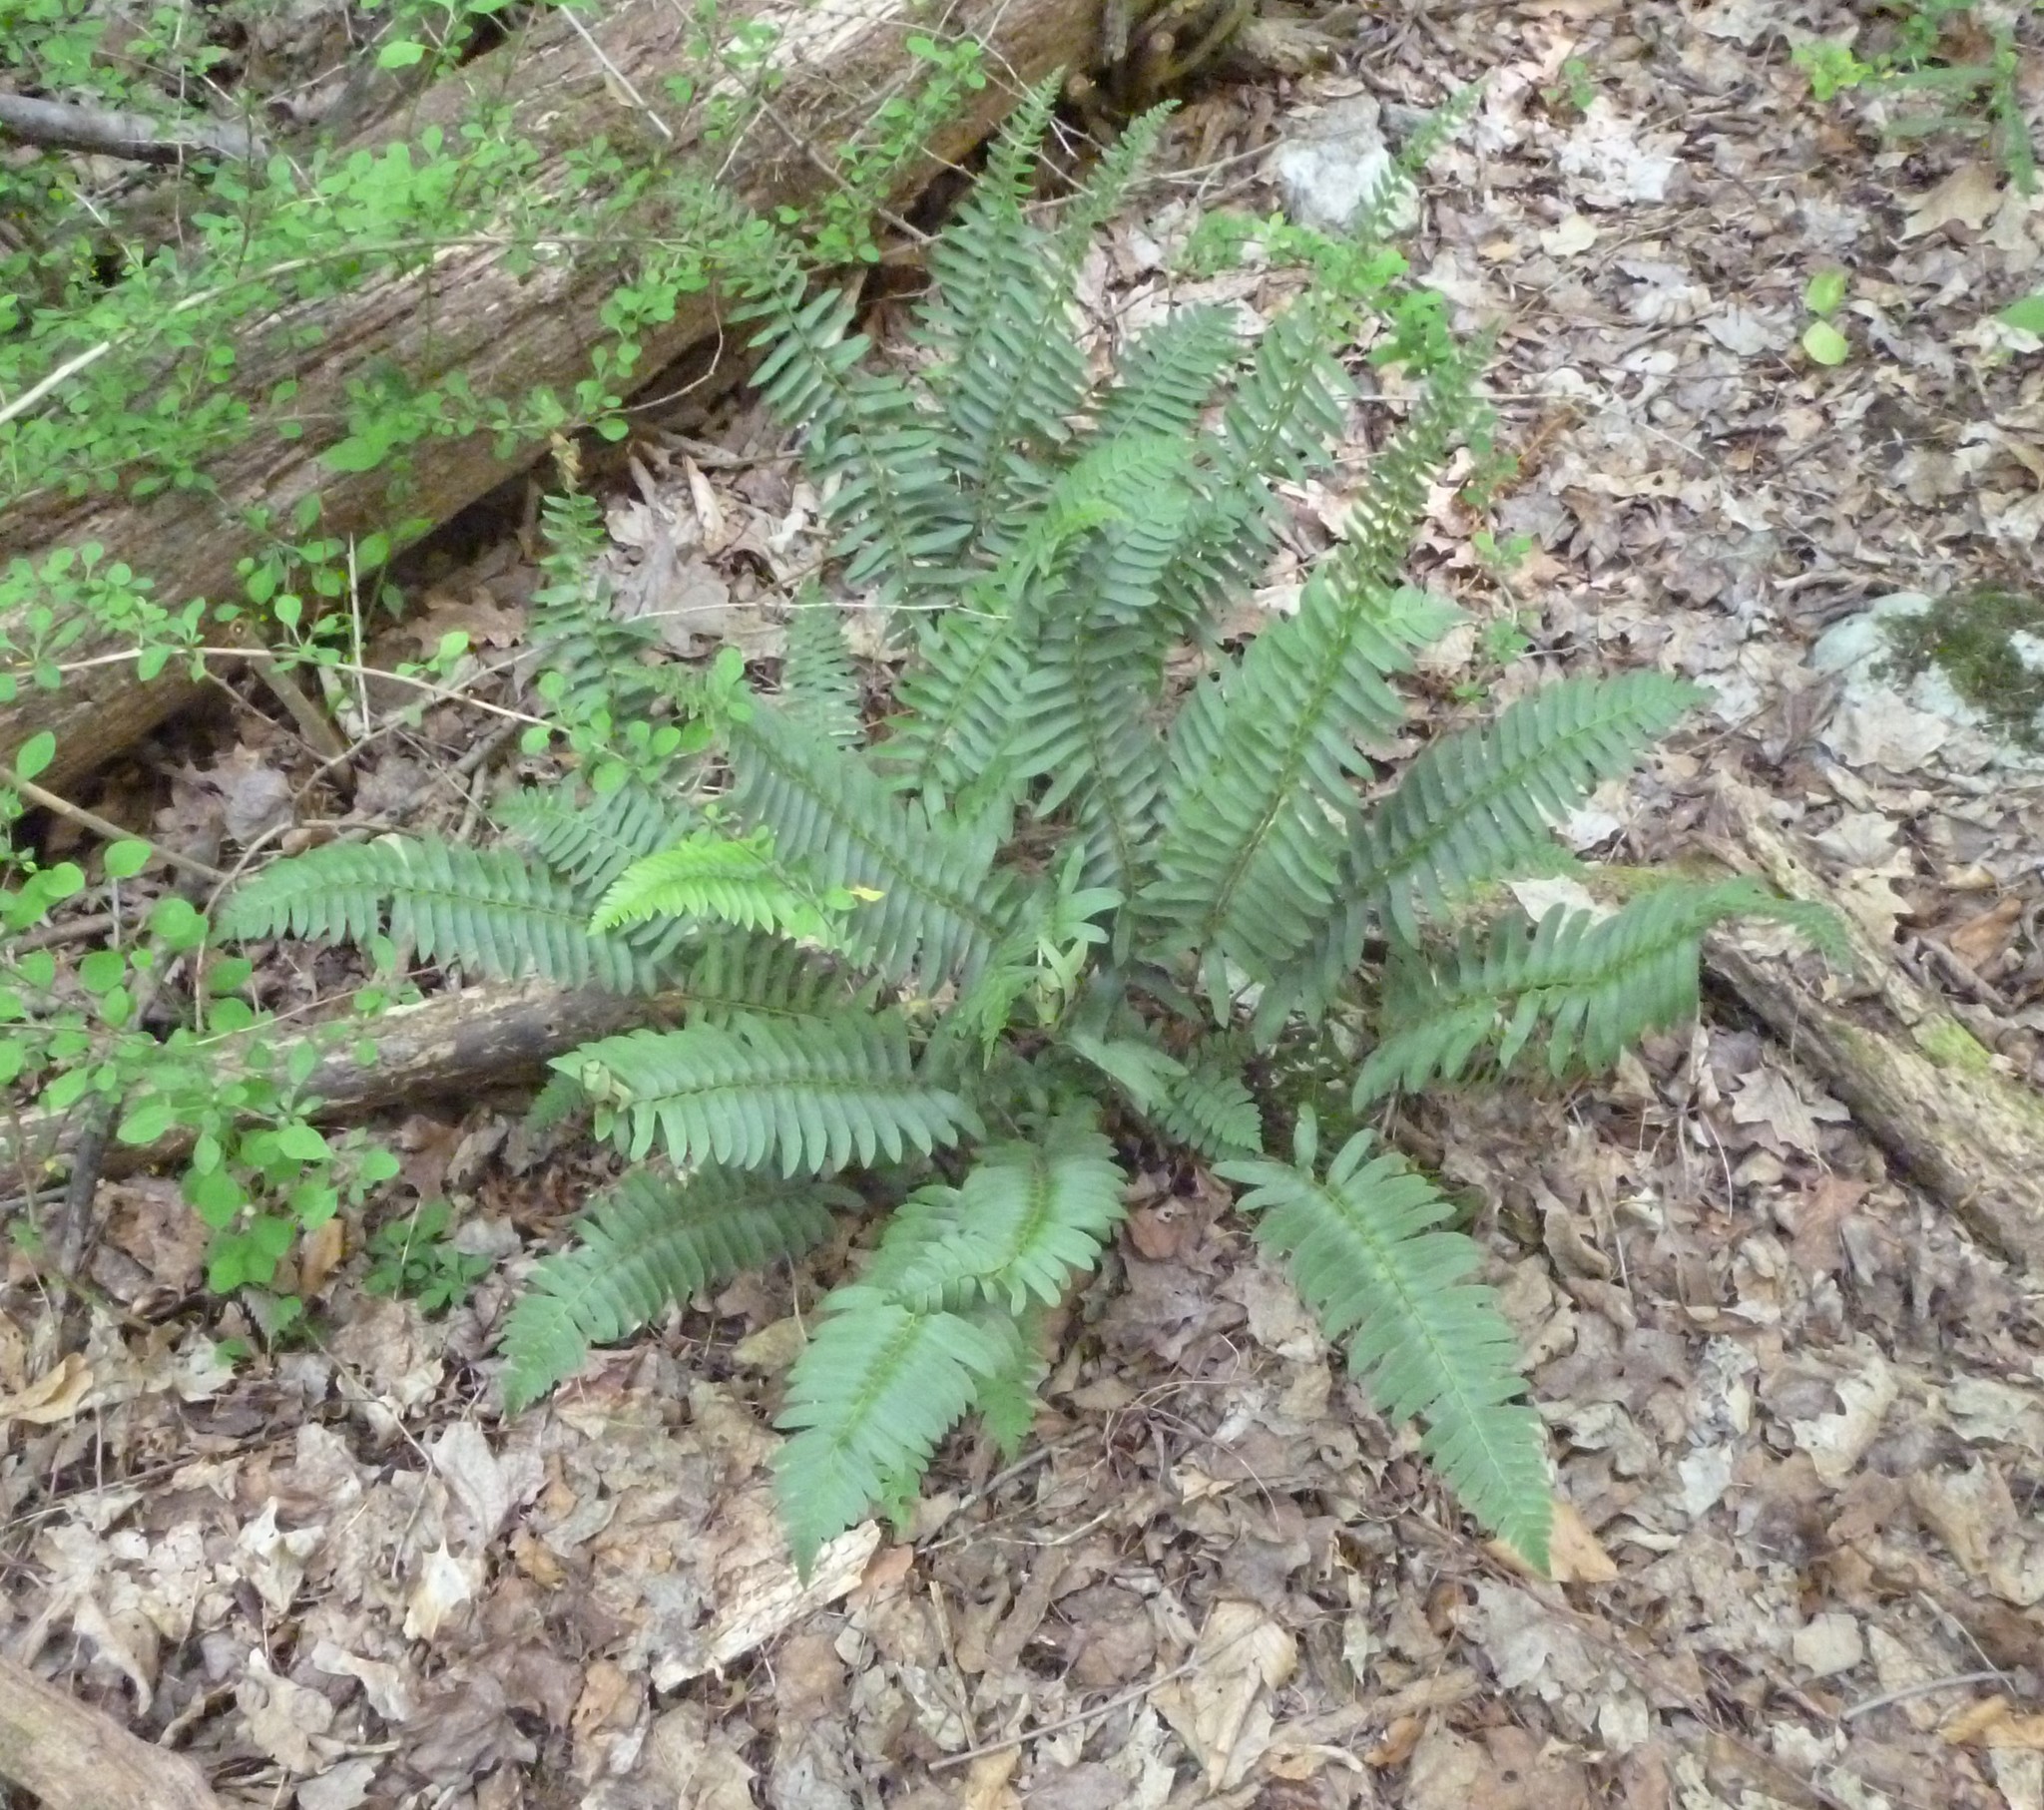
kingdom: Plantae
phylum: Tracheophyta
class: Polypodiopsida
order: Polypodiales
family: Dryopteridaceae
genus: Polystichum
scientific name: Polystichum acrostichoides
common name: Christmas fern
